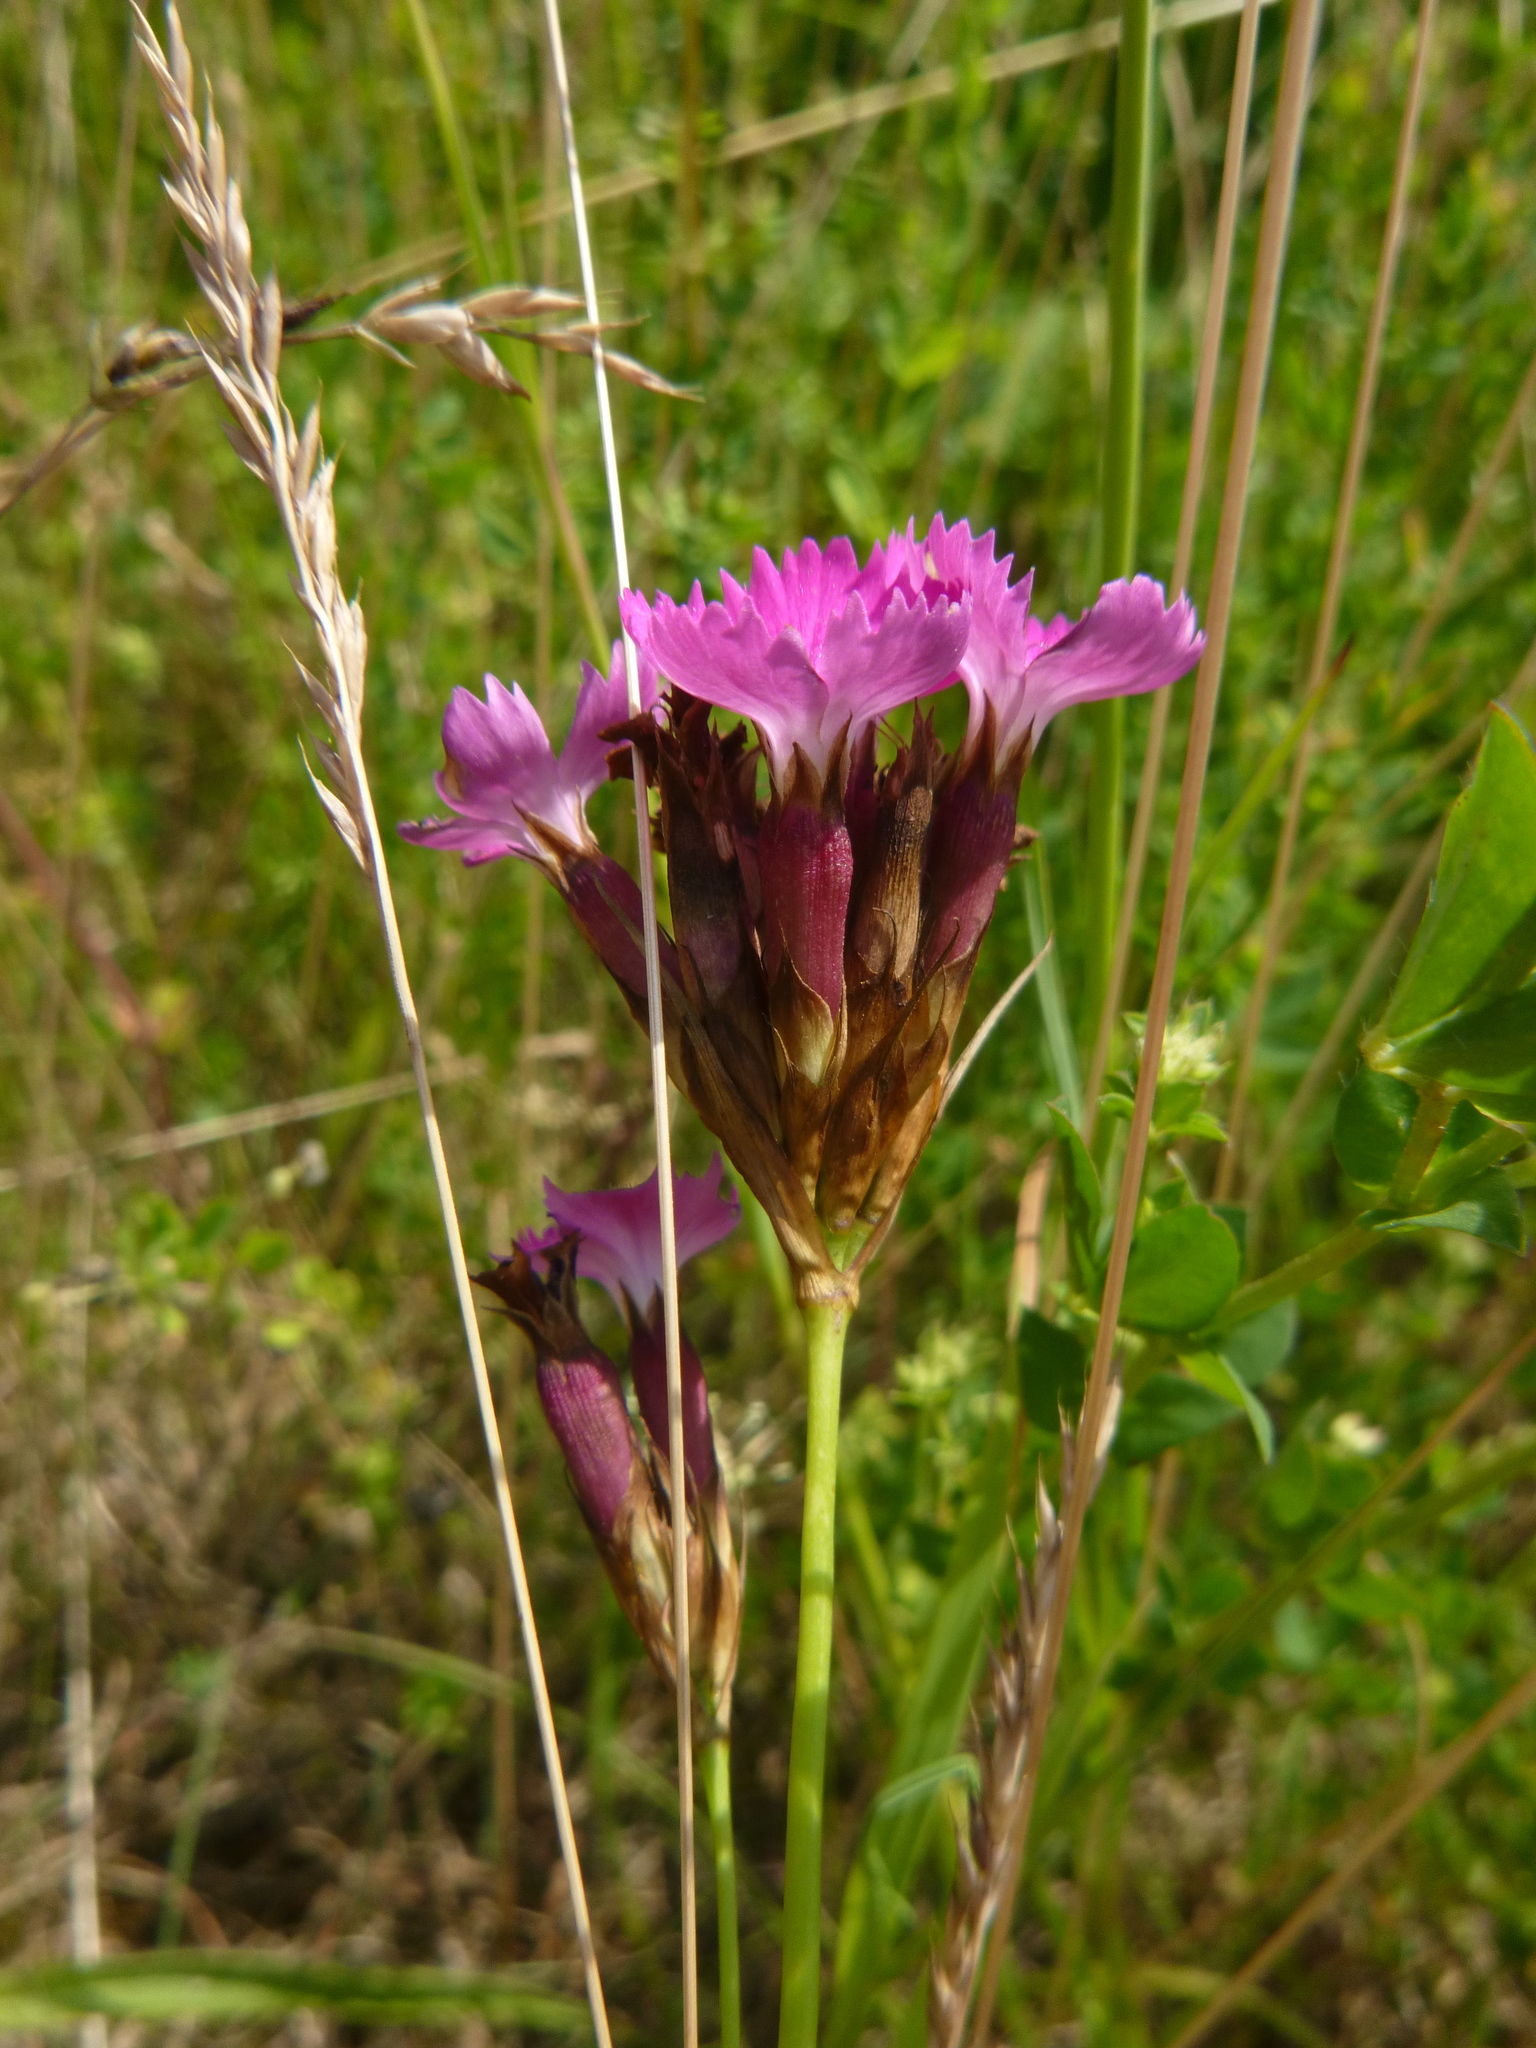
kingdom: Plantae
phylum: Tracheophyta
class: Magnoliopsida
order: Caryophyllales
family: Caryophyllaceae
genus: Dianthus
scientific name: Dianthus carthusianorum
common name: Carthusian pink
